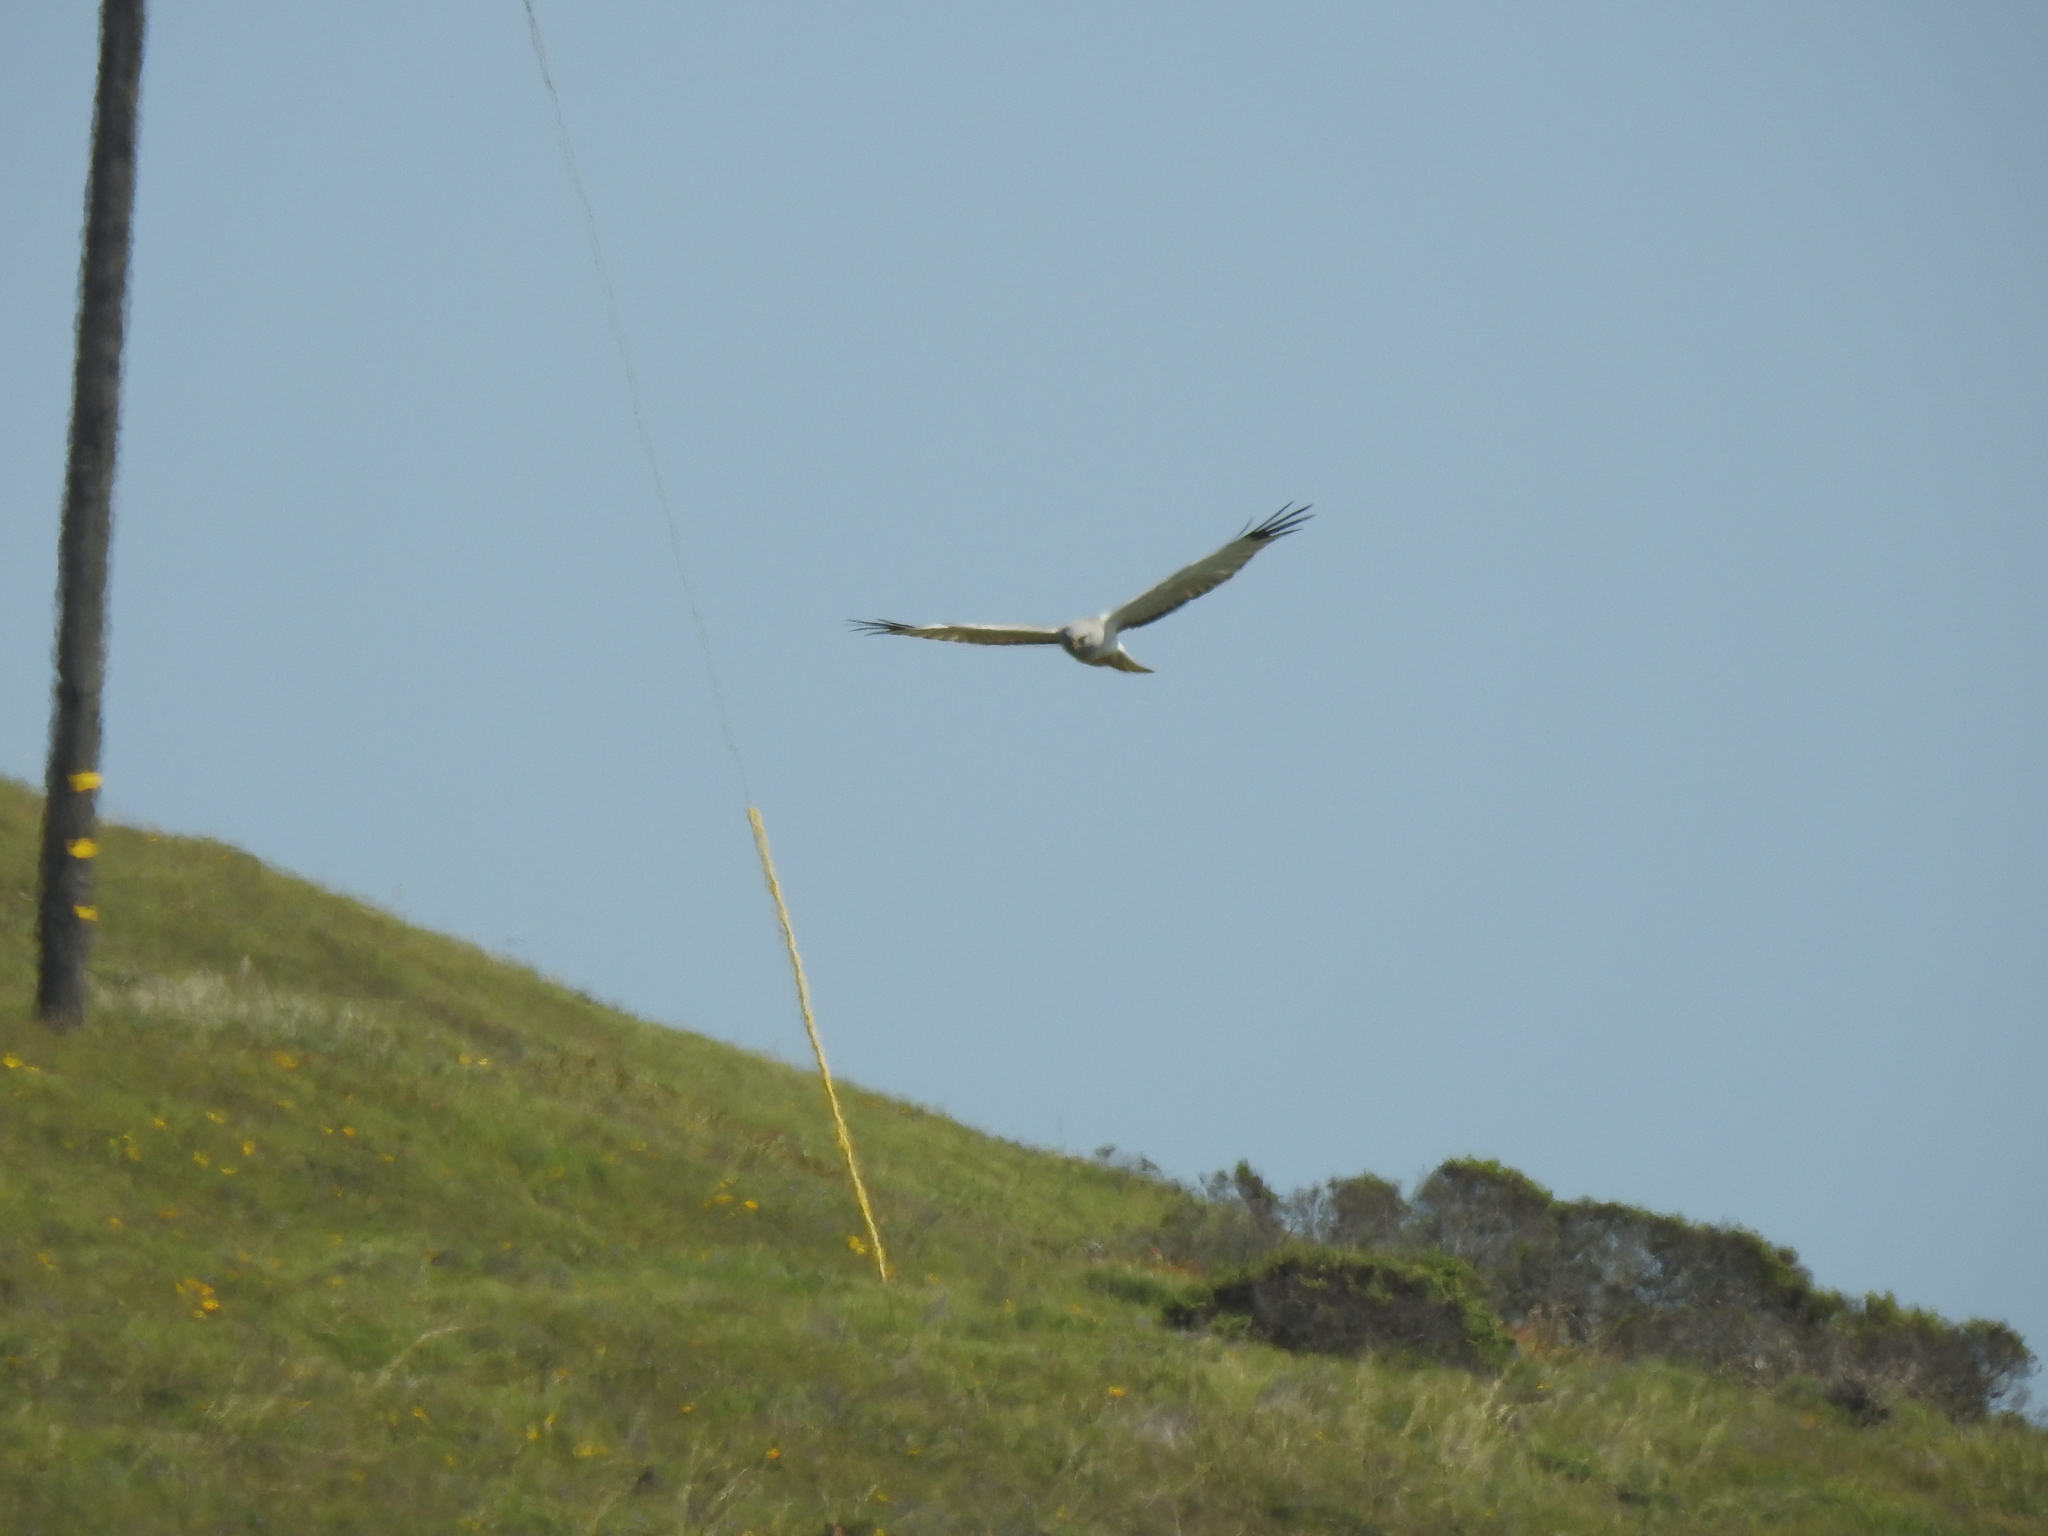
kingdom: Animalia
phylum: Chordata
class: Aves
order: Accipitriformes
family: Accipitridae
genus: Circus
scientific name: Circus cyaneus
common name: Hen harrier
